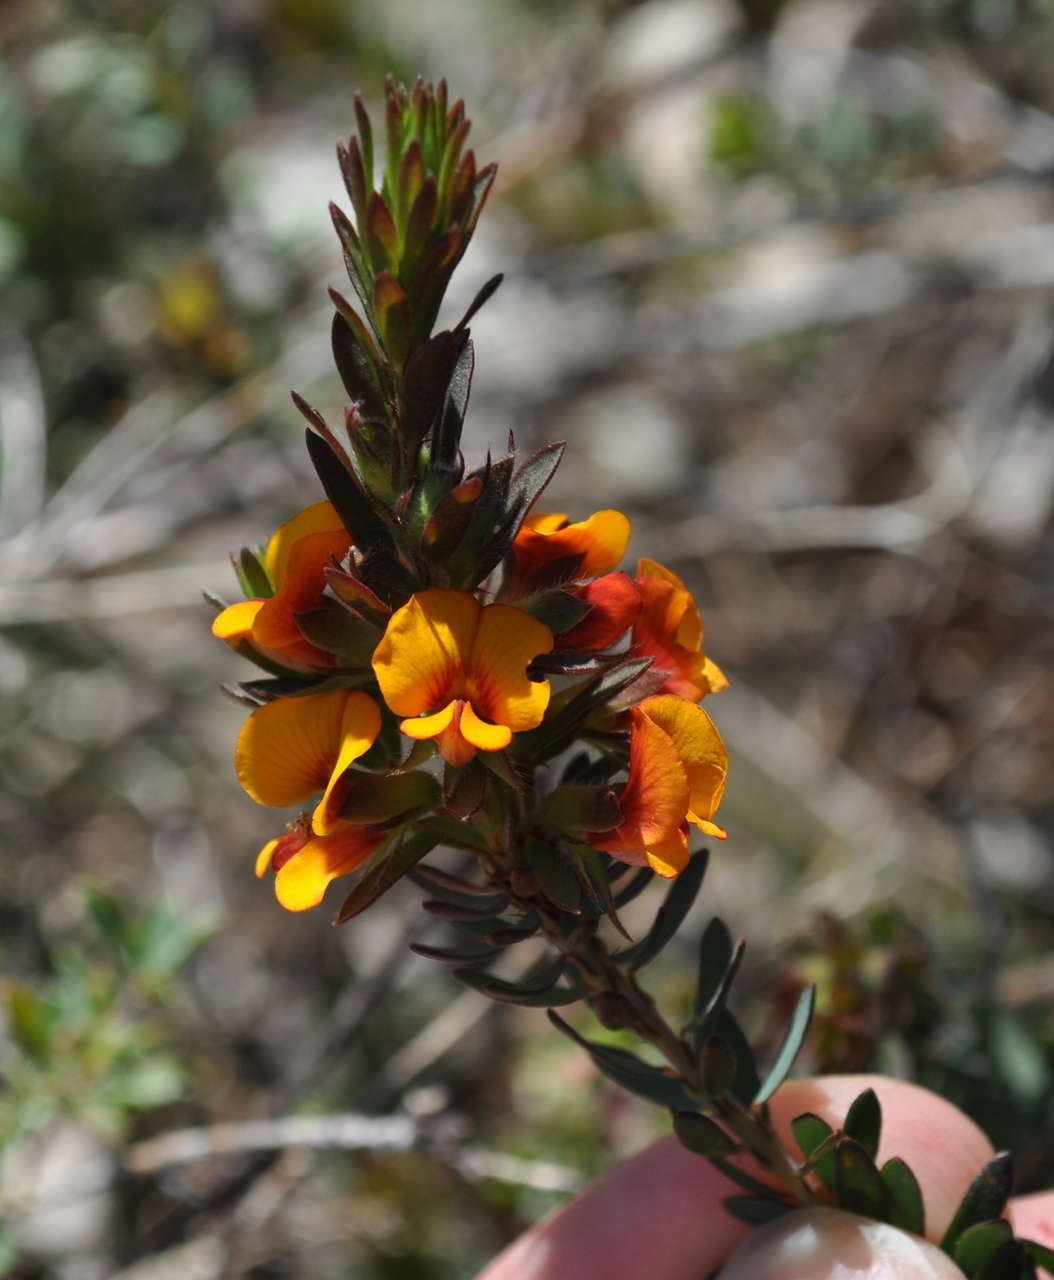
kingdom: Plantae
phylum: Tracheophyta
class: Magnoliopsida
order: Fabales
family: Fabaceae
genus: Pultenaea
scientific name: Pultenaea humilis
